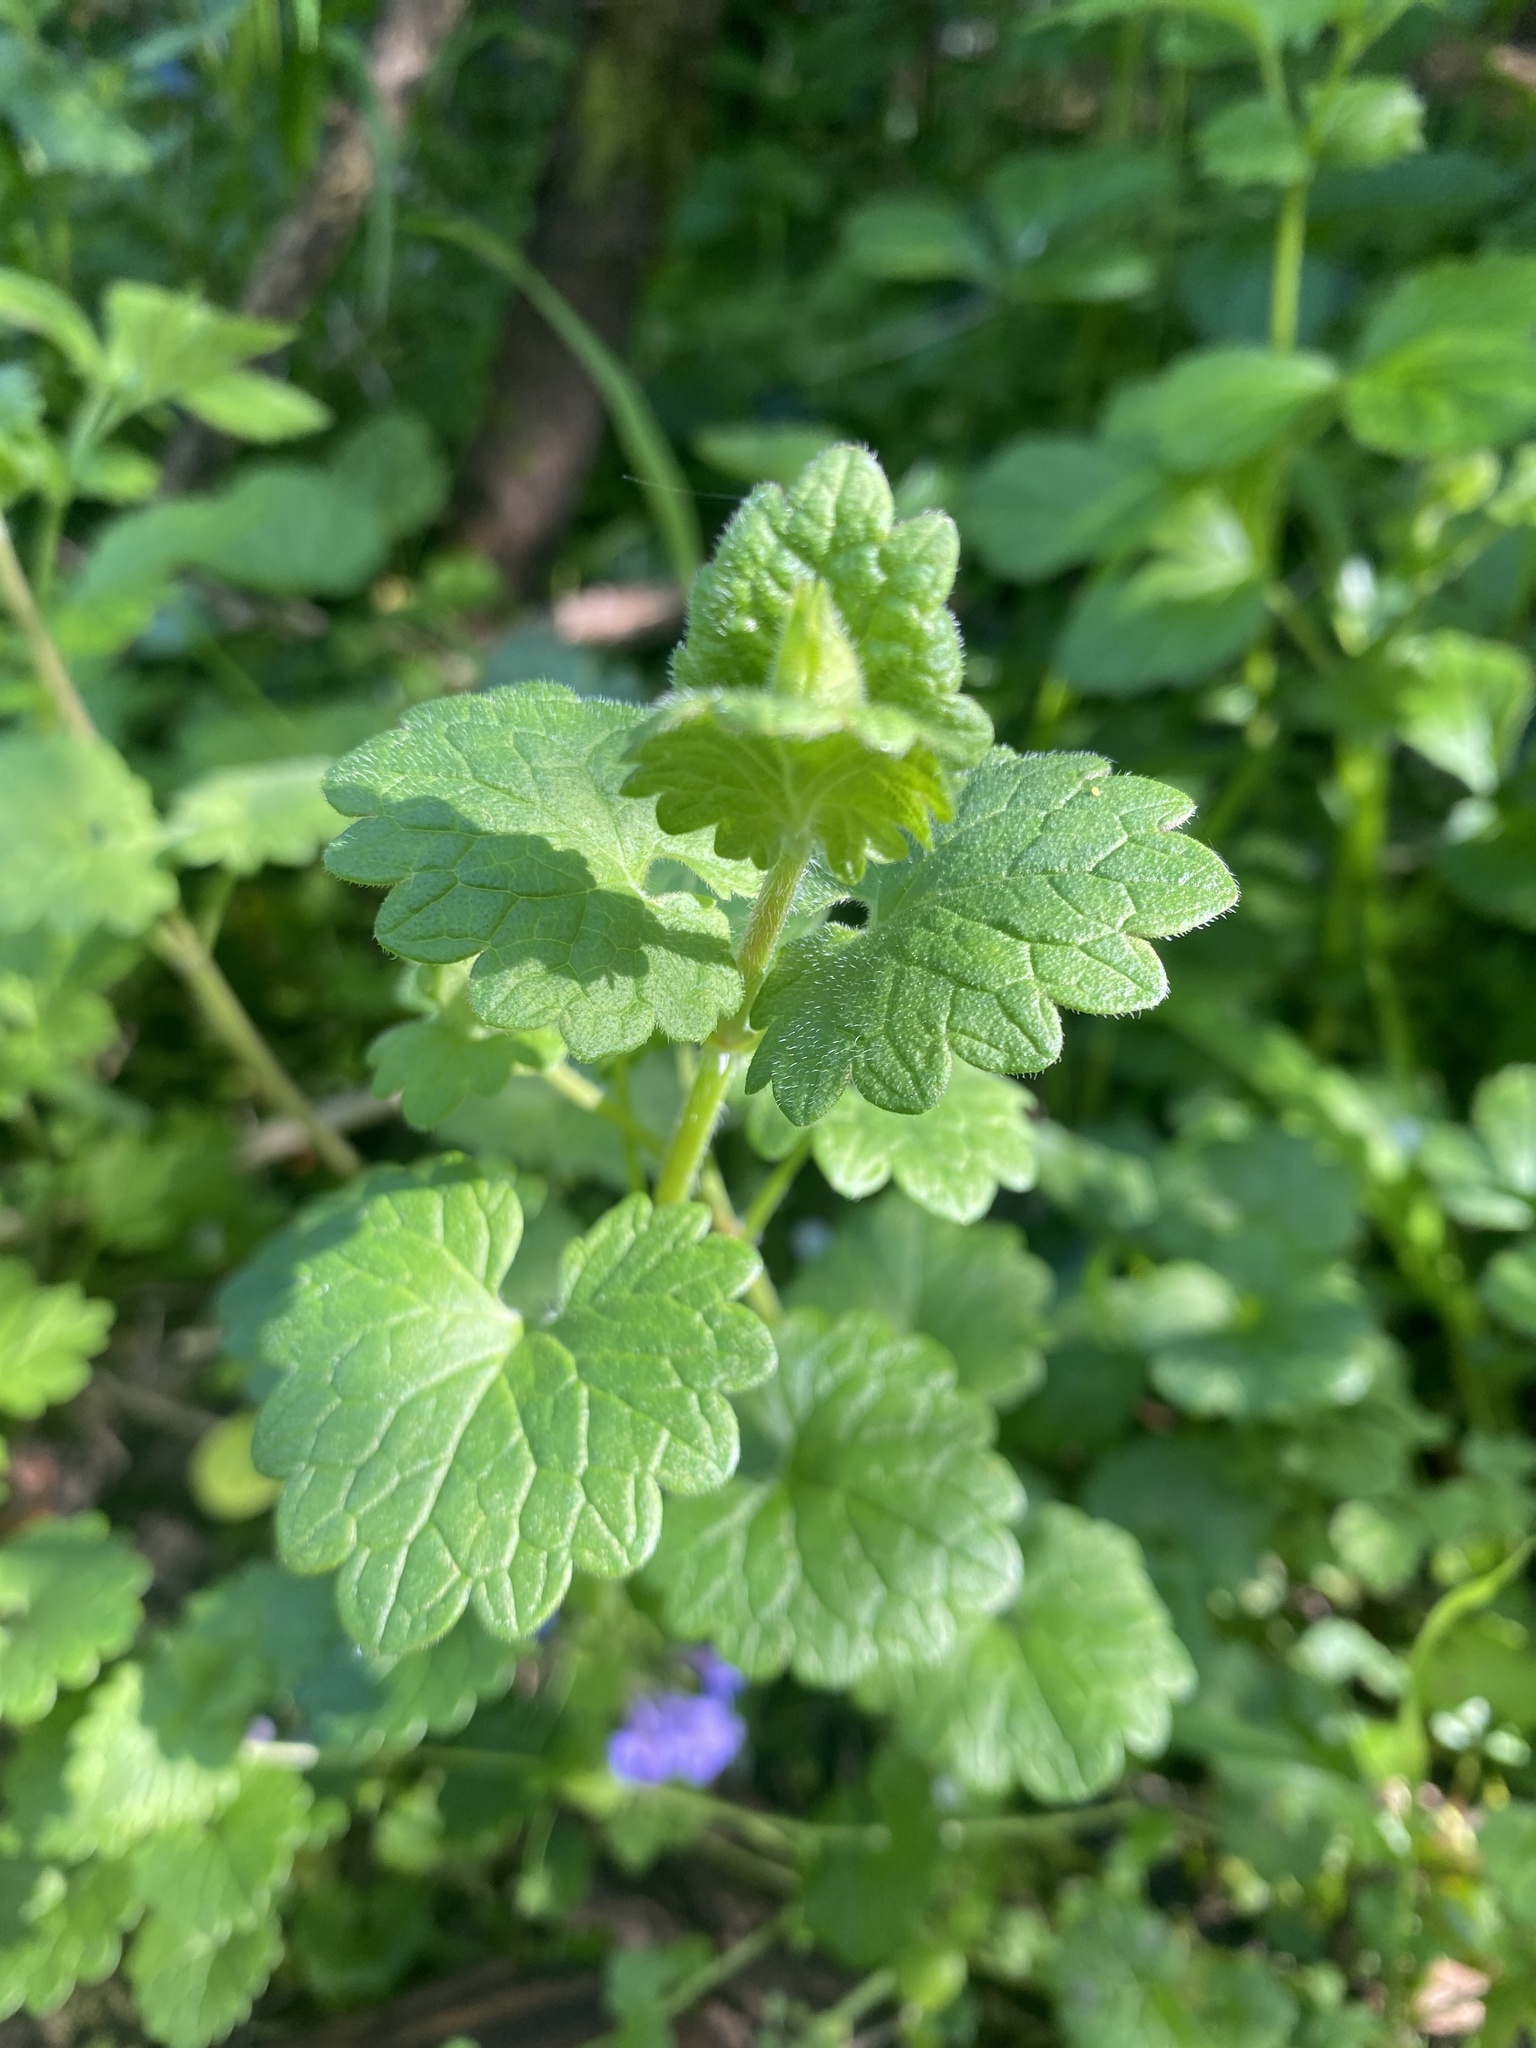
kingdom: Plantae
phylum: Tracheophyta
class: Magnoliopsida
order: Lamiales
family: Lamiaceae
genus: Glechoma
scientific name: Glechoma hederacea
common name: Ground ivy
